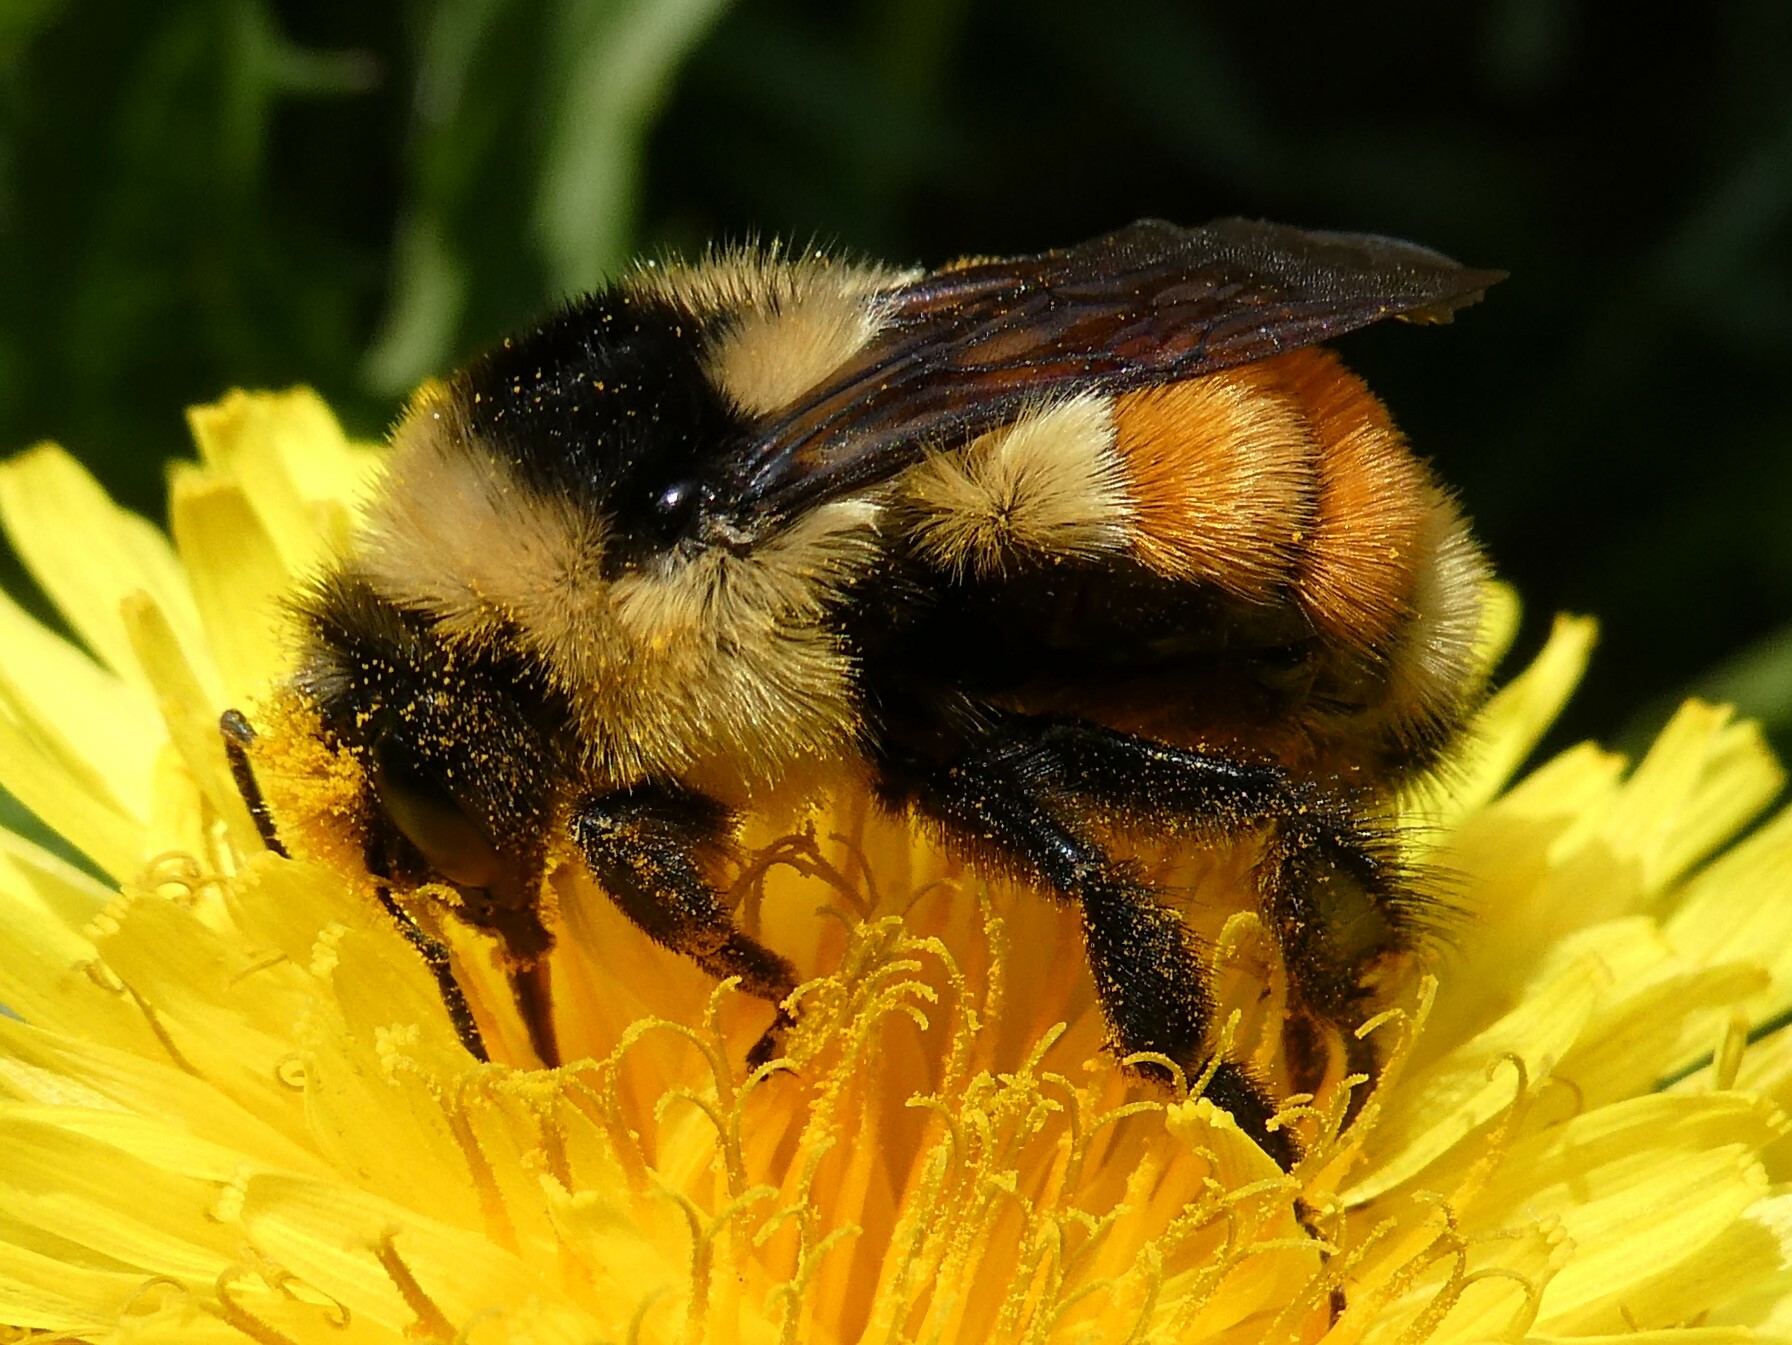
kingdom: Animalia
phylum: Arthropoda
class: Insecta
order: Hymenoptera
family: Apidae
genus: Bombus
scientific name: Bombus ternarius
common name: Tri-colored bumble bee
